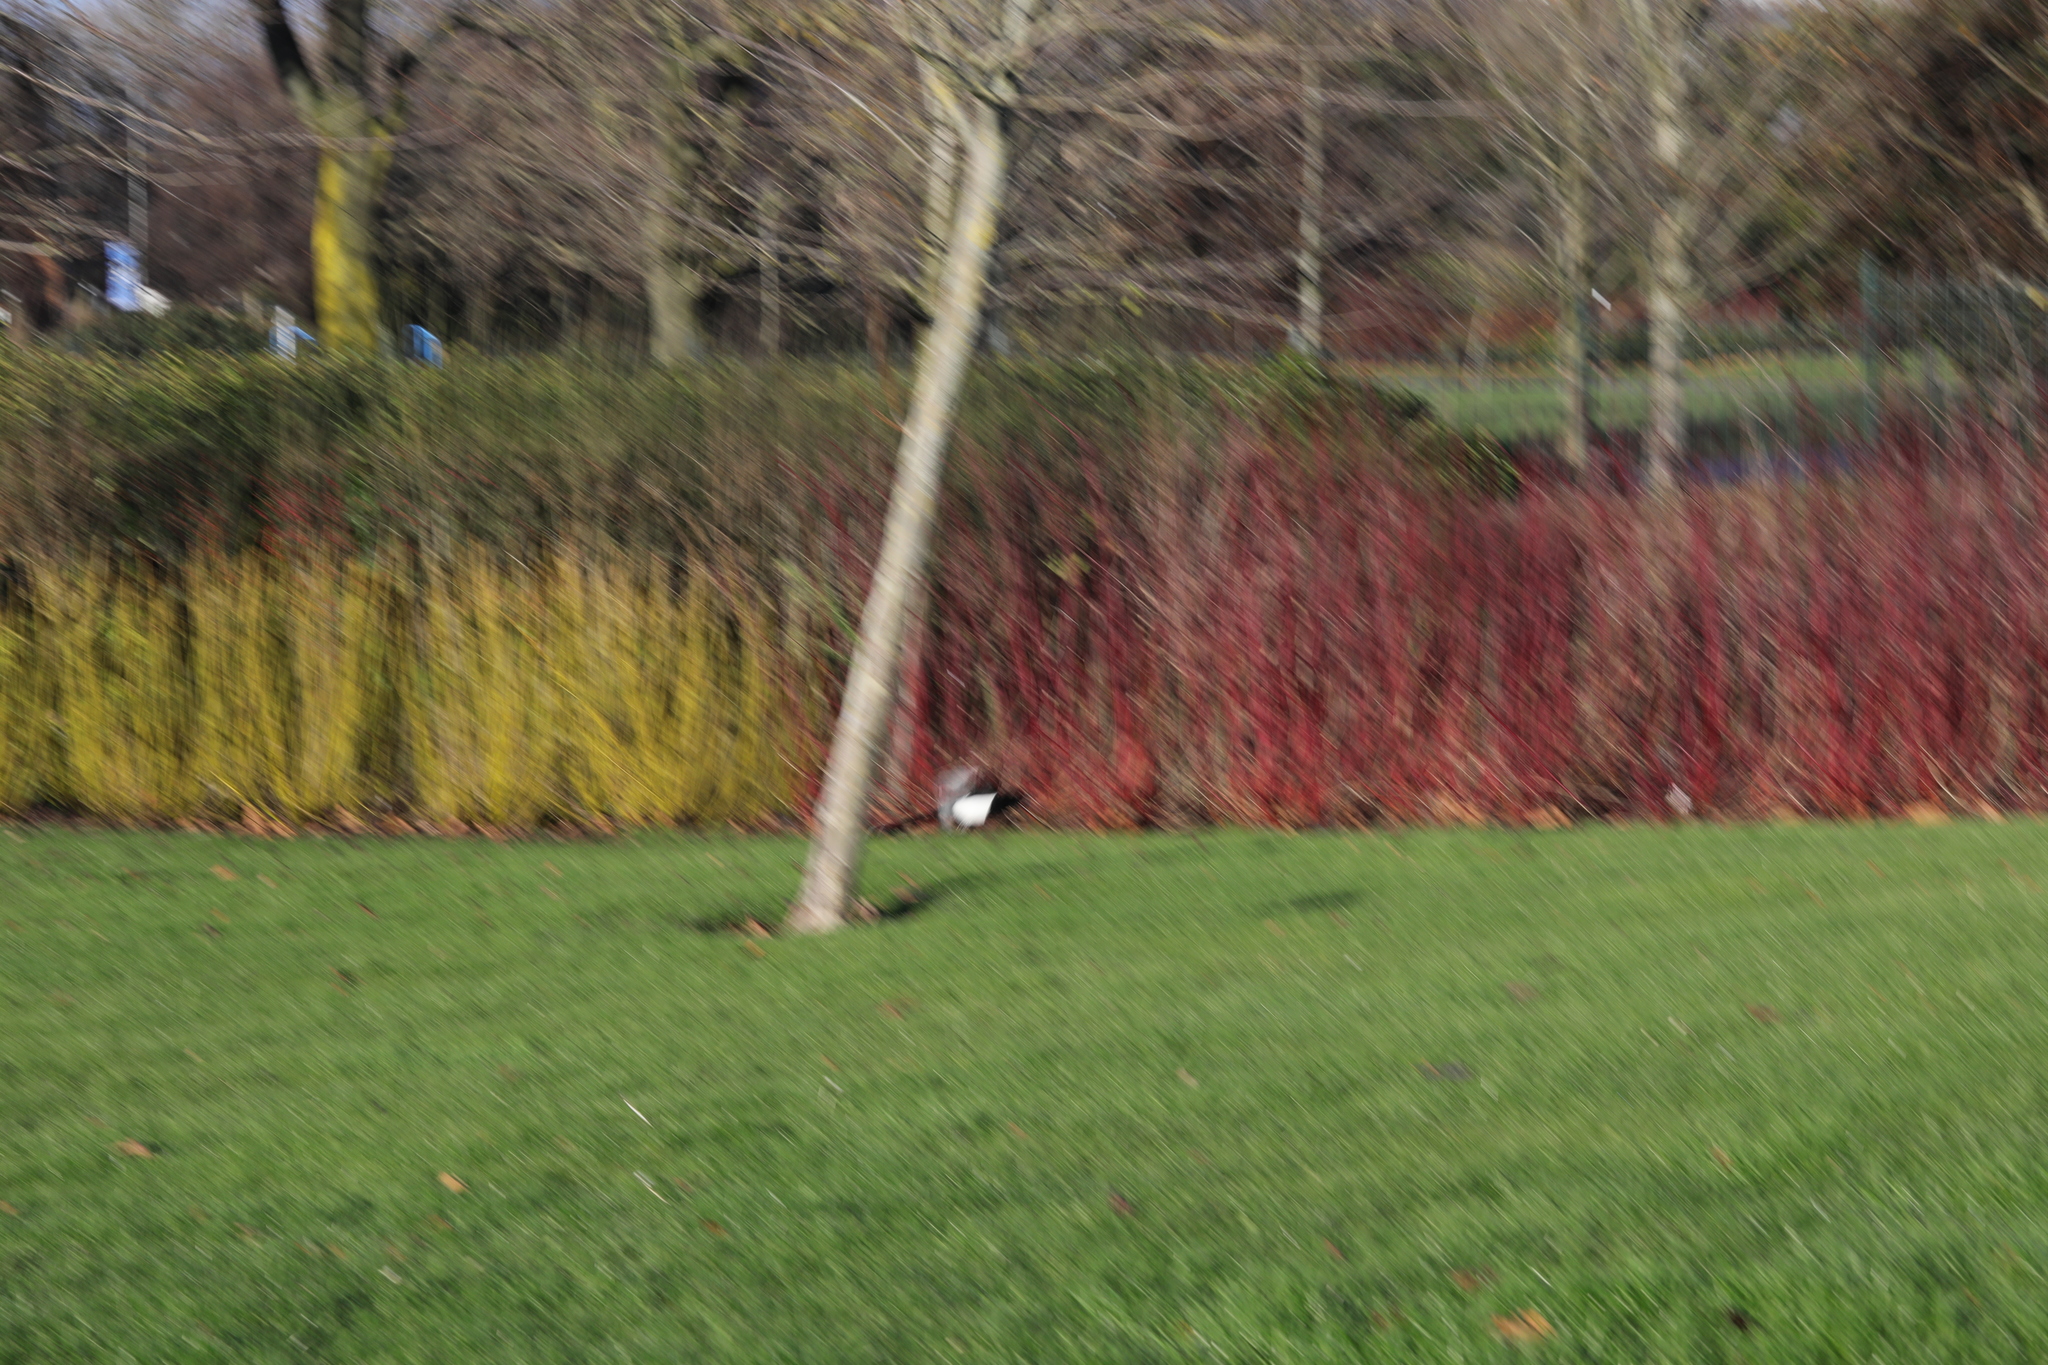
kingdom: Animalia
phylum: Chordata
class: Aves
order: Passeriformes
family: Corvidae
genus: Pica
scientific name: Pica pica
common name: Eurasian magpie
